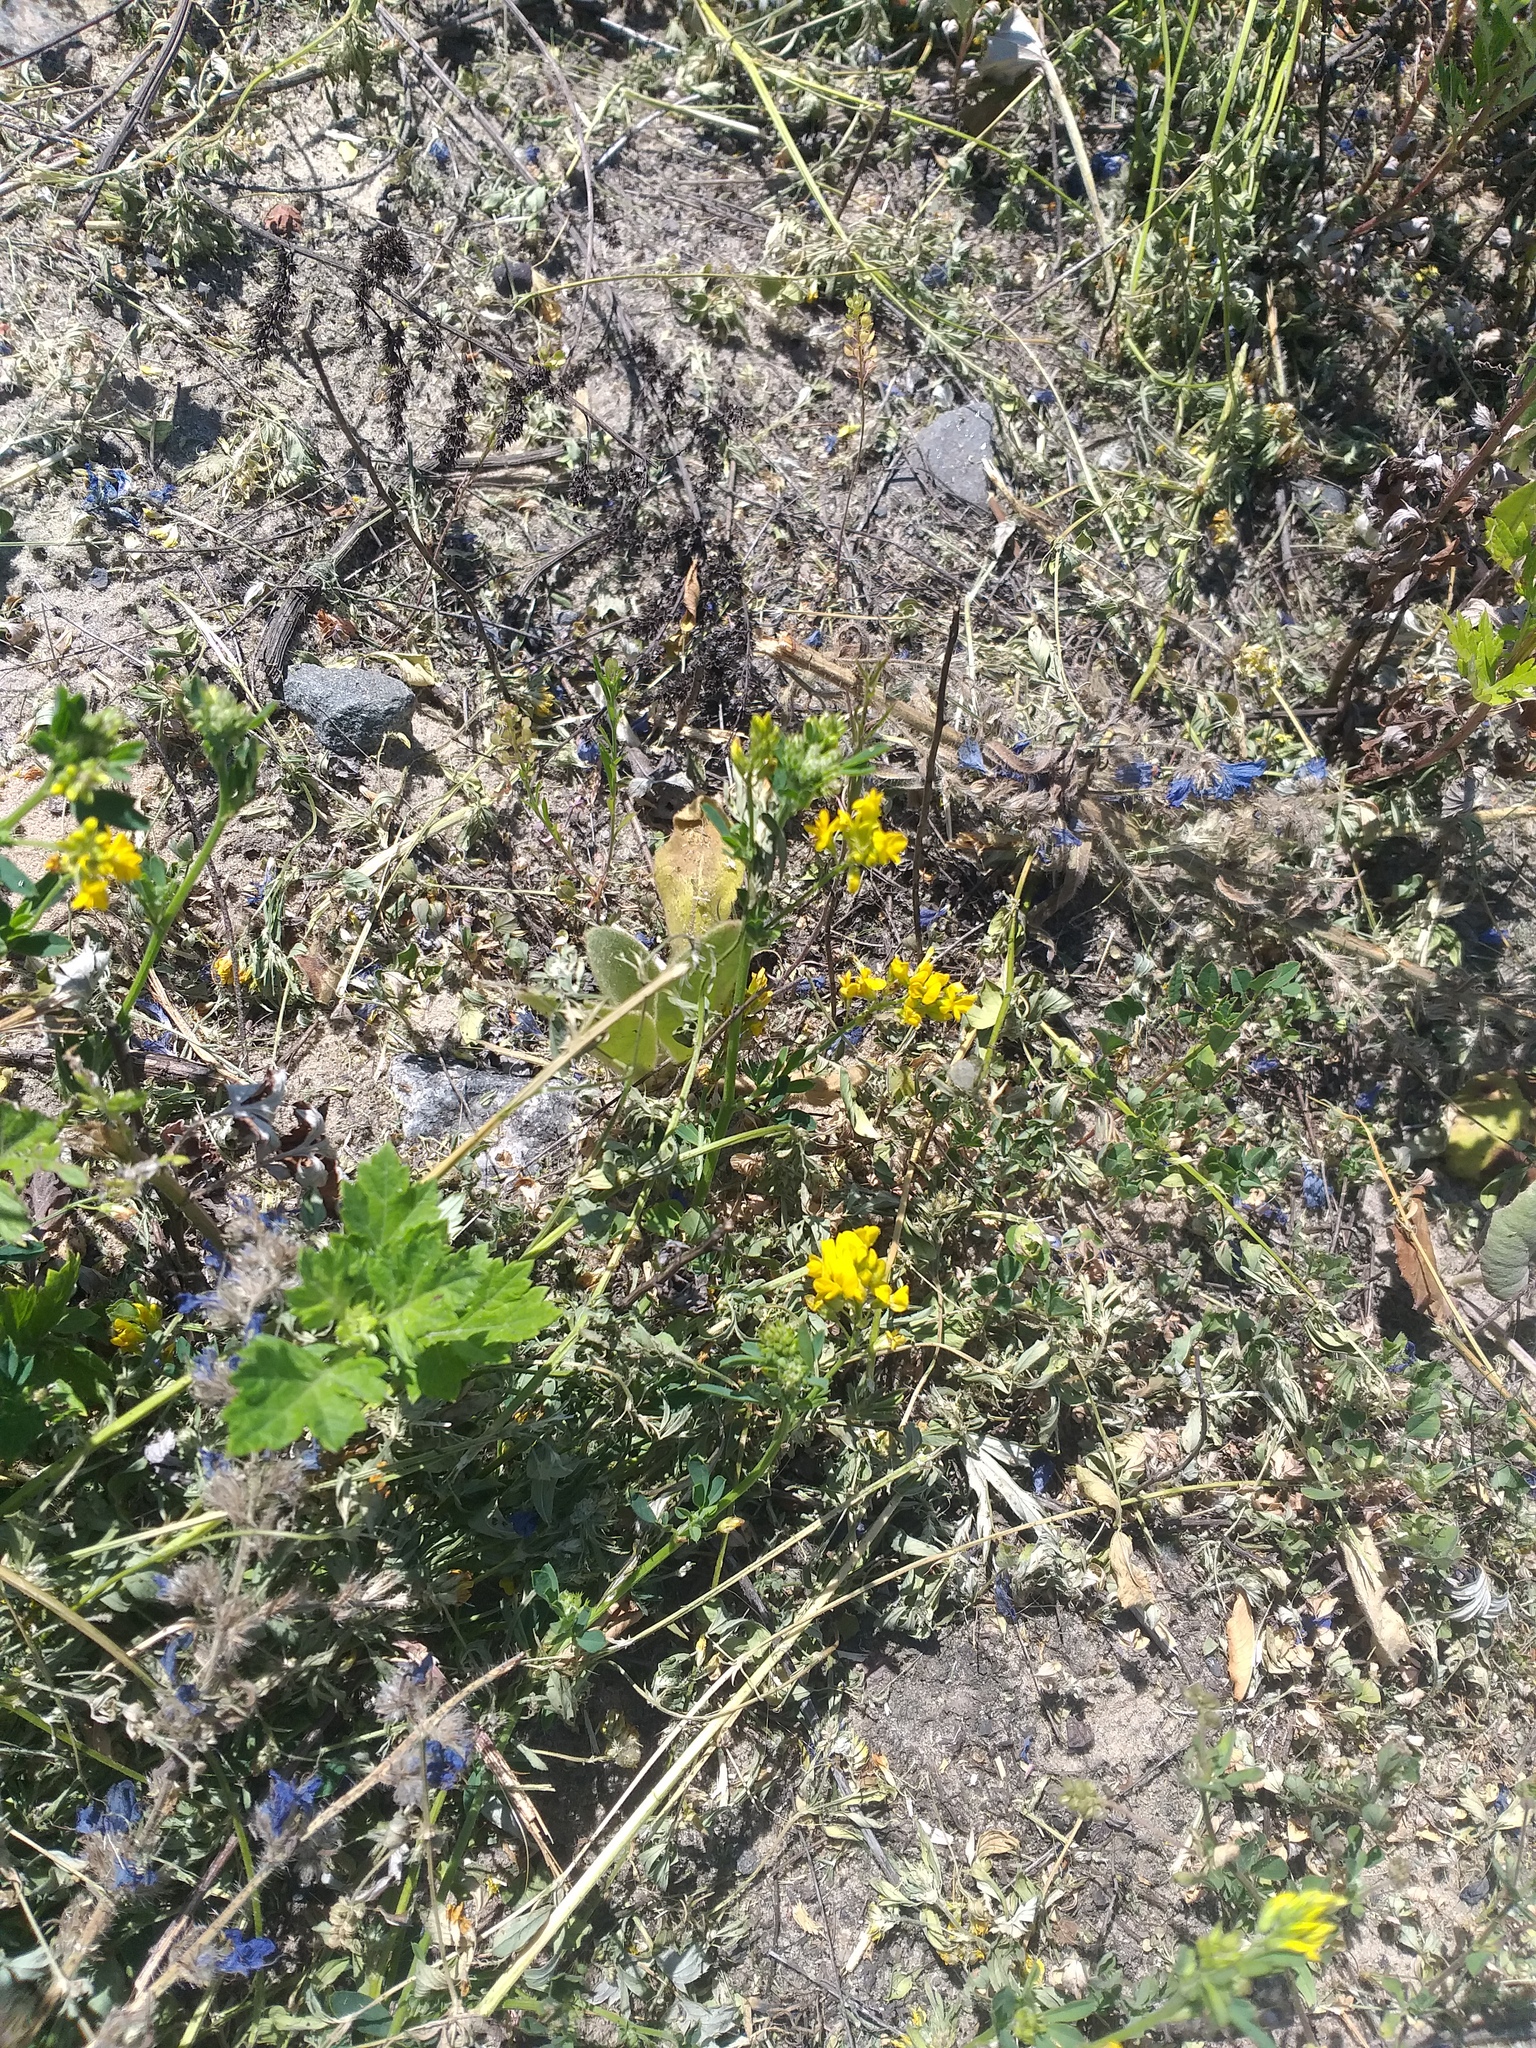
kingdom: Plantae
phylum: Tracheophyta
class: Magnoliopsida
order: Fabales
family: Fabaceae
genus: Medicago
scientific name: Medicago falcata
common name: Sickle medick
